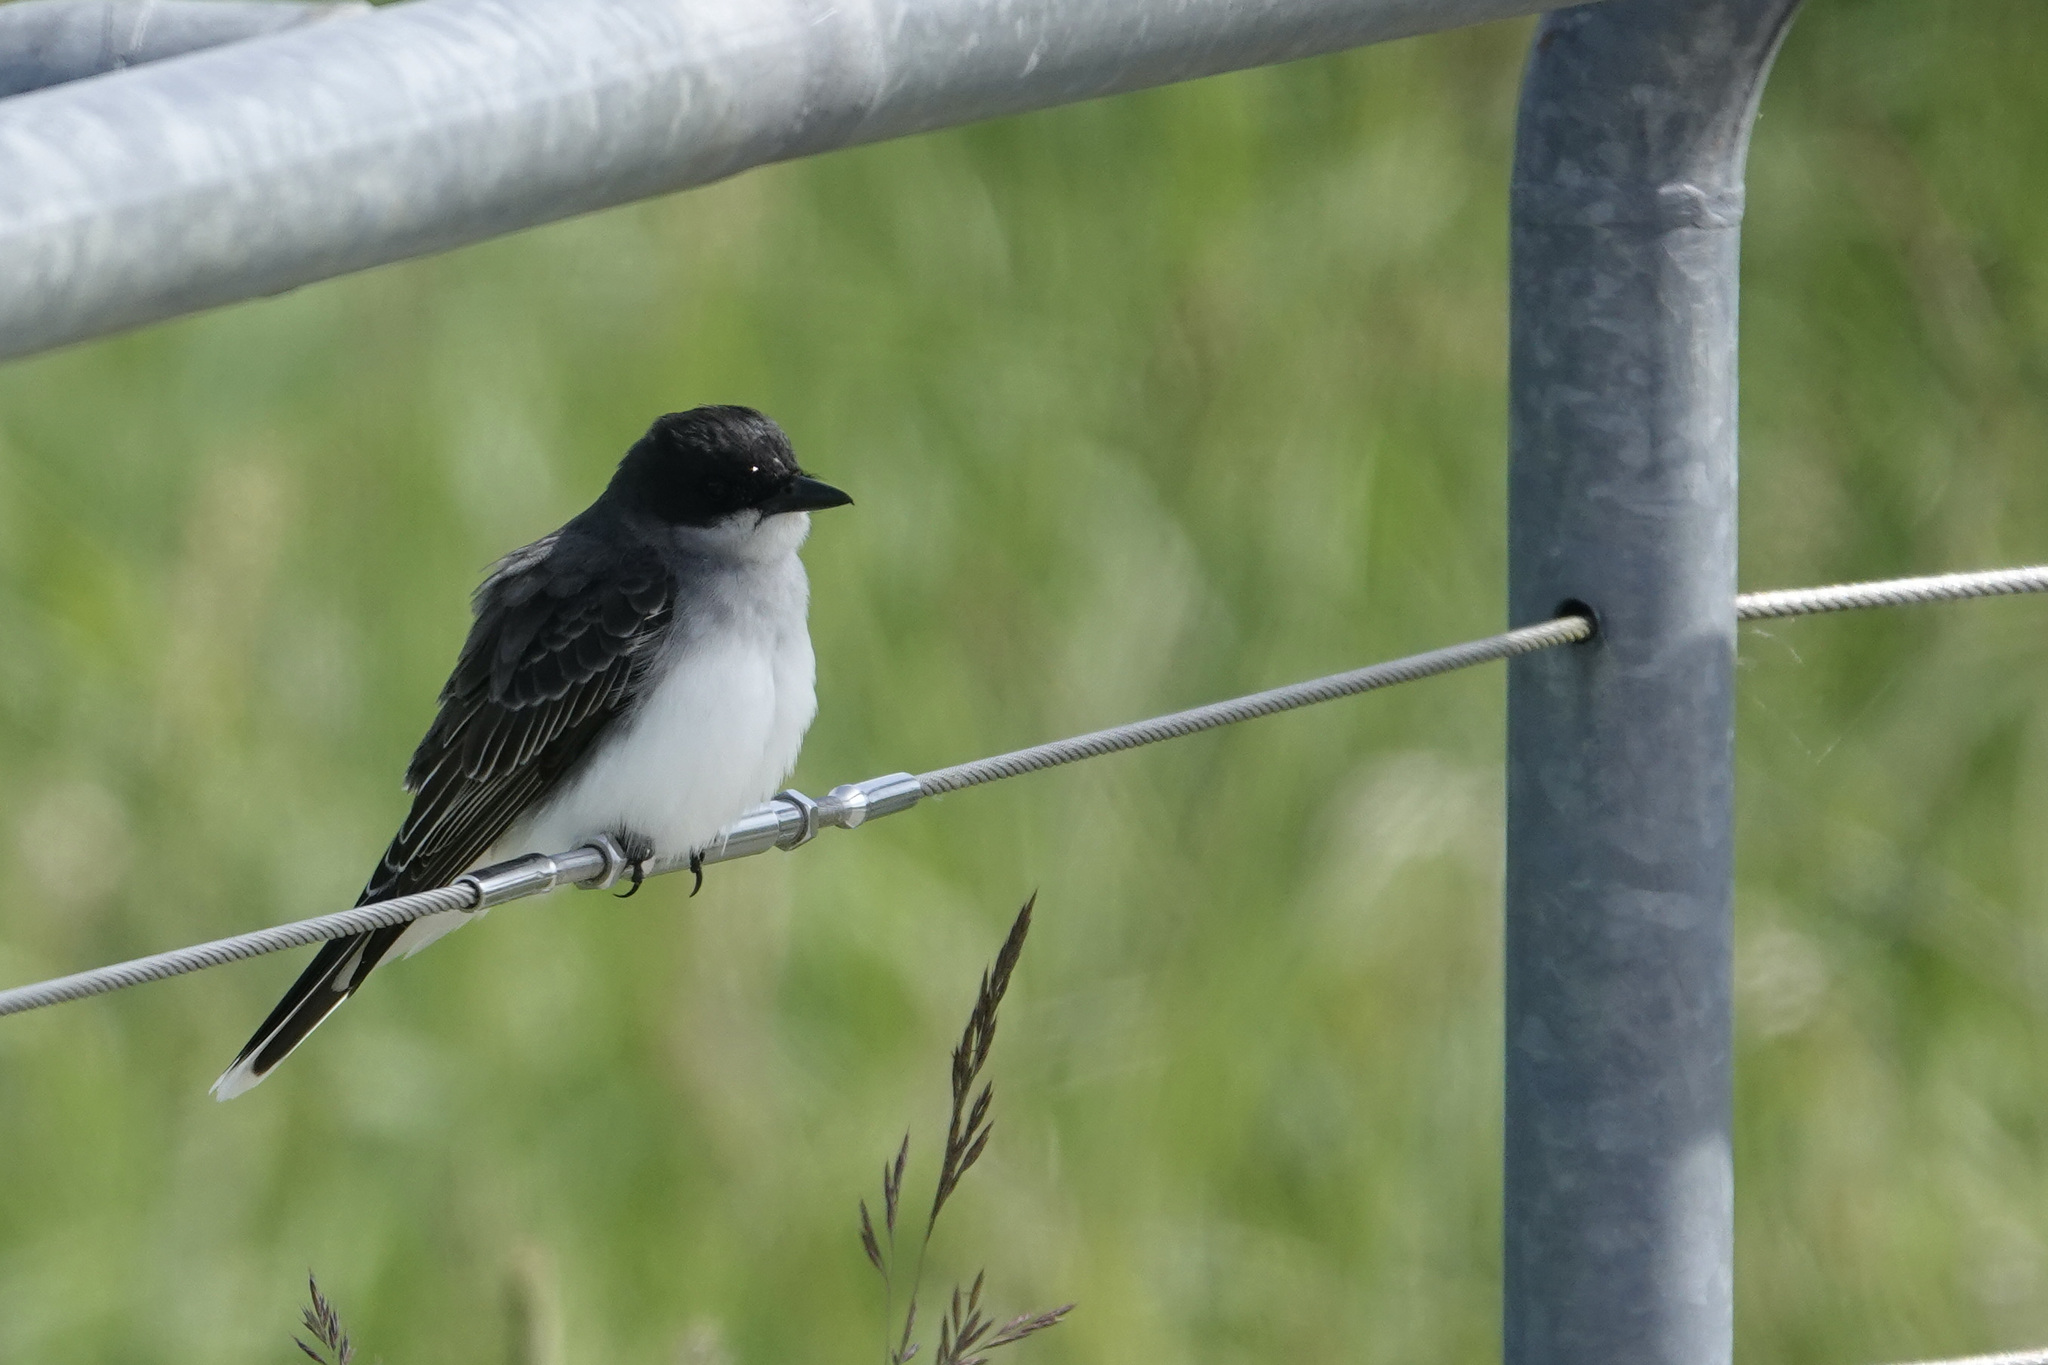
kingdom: Animalia
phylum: Chordata
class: Aves
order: Passeriformes
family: Tyrannidae
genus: Tyrannus
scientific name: Tyrannus tyrannus
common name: Eastern kingbird
